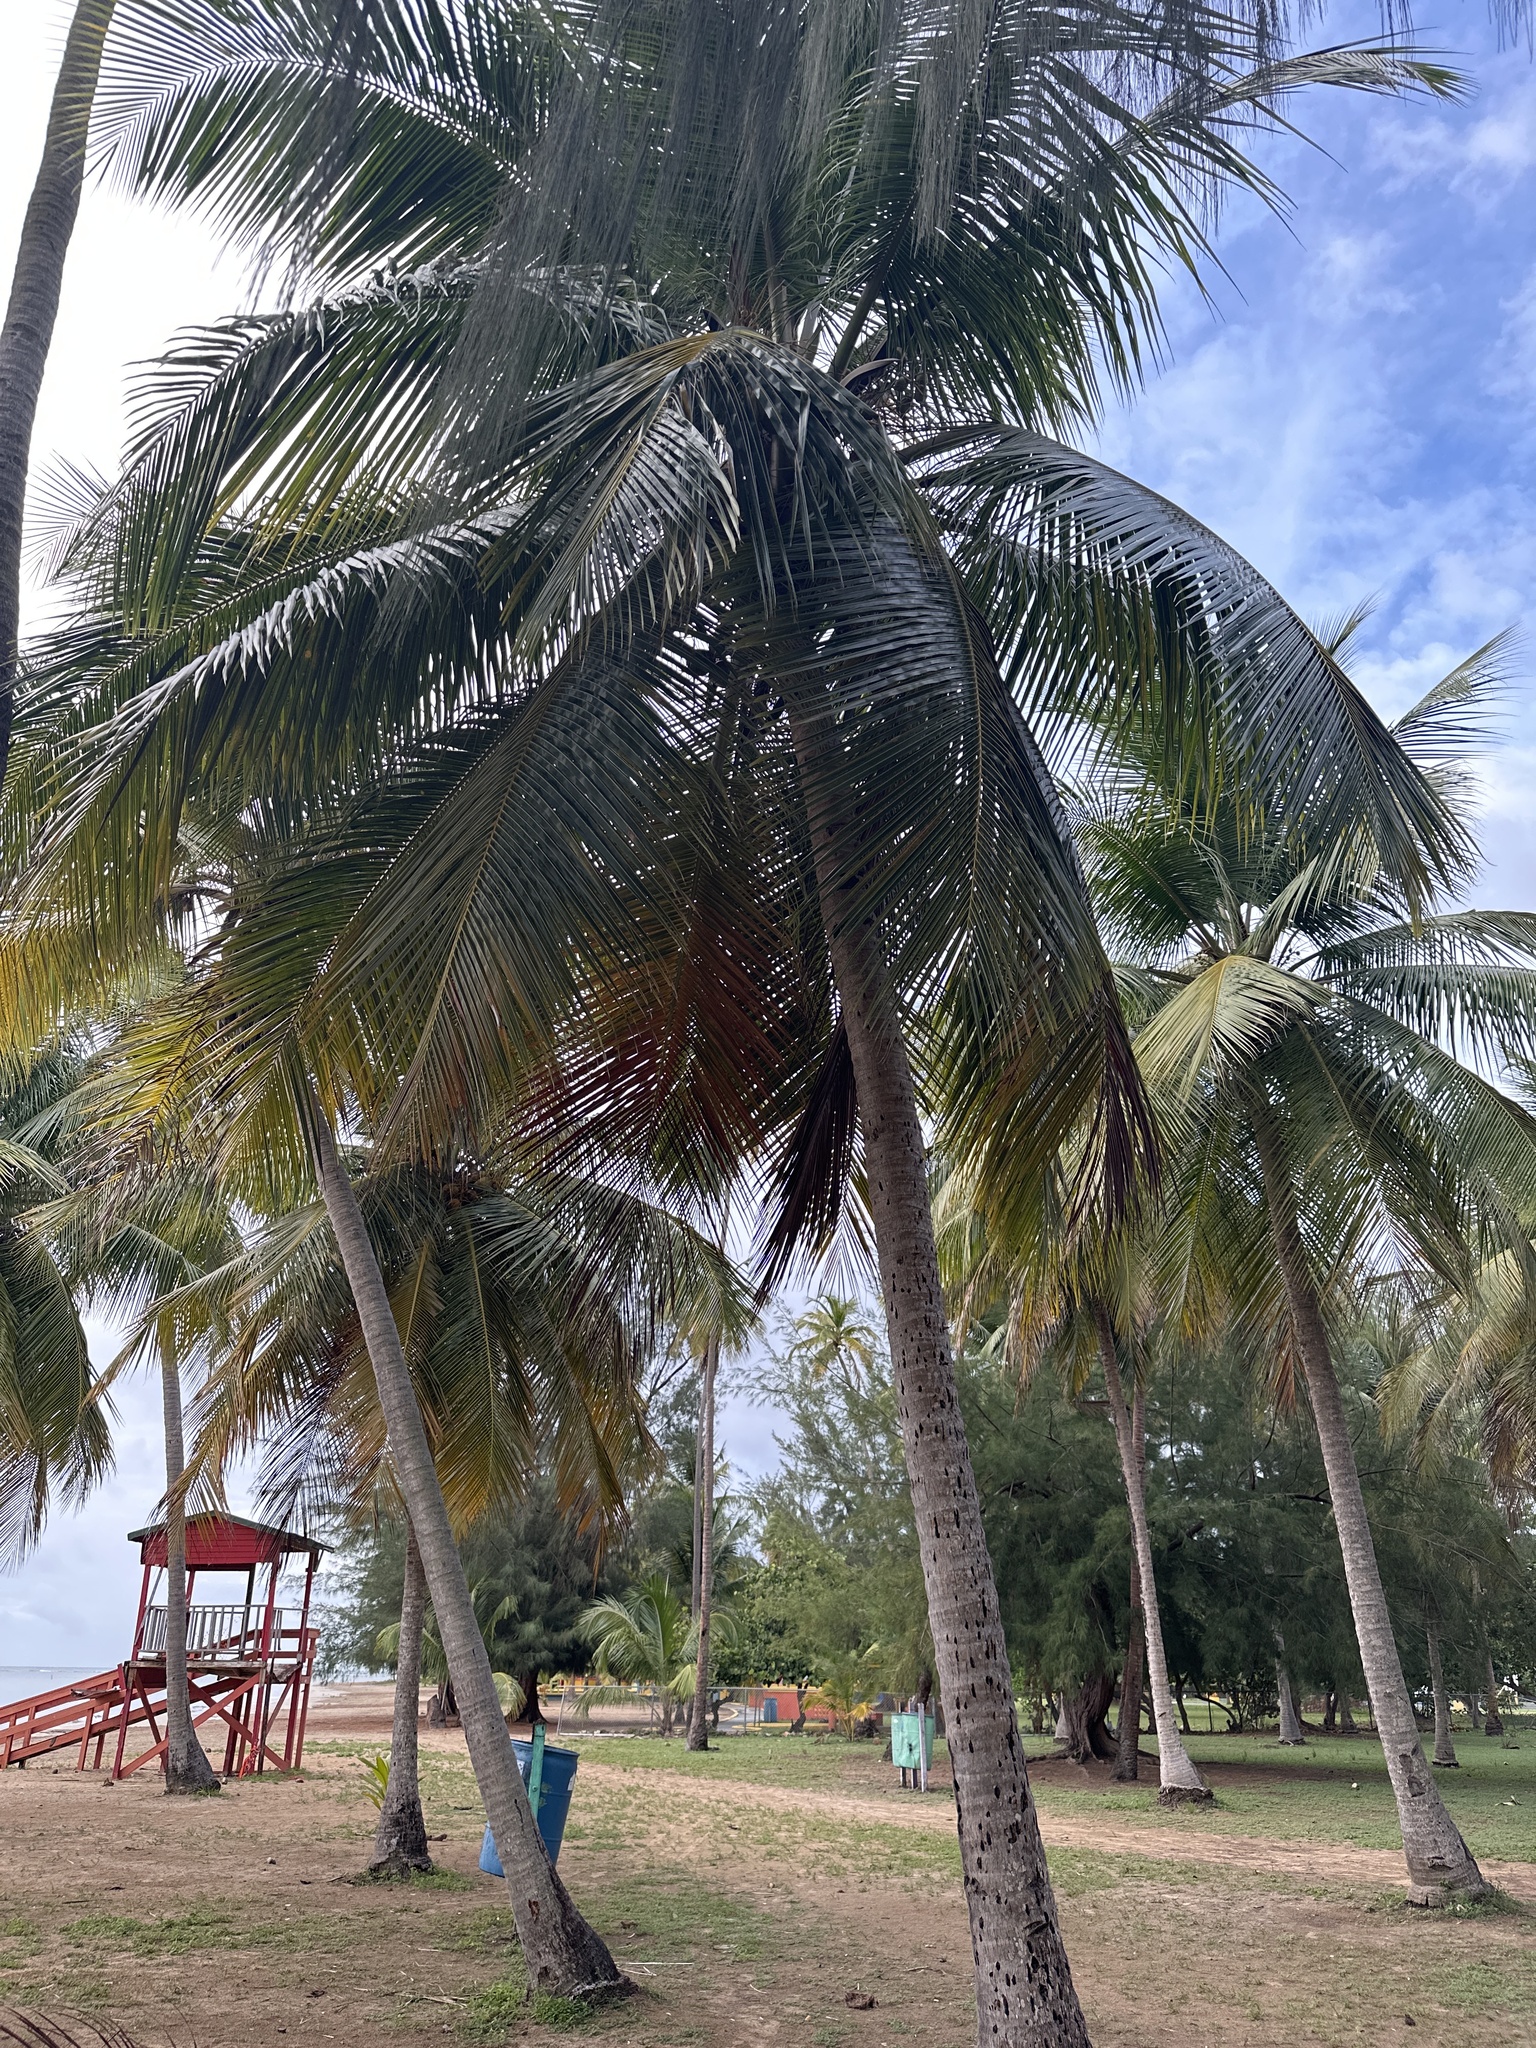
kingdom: Plantae
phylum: Tracheophyta
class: Liliopsida
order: Arecales
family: Arecaceae
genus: Cocos
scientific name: Cocos nucifera
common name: Coconut palm
